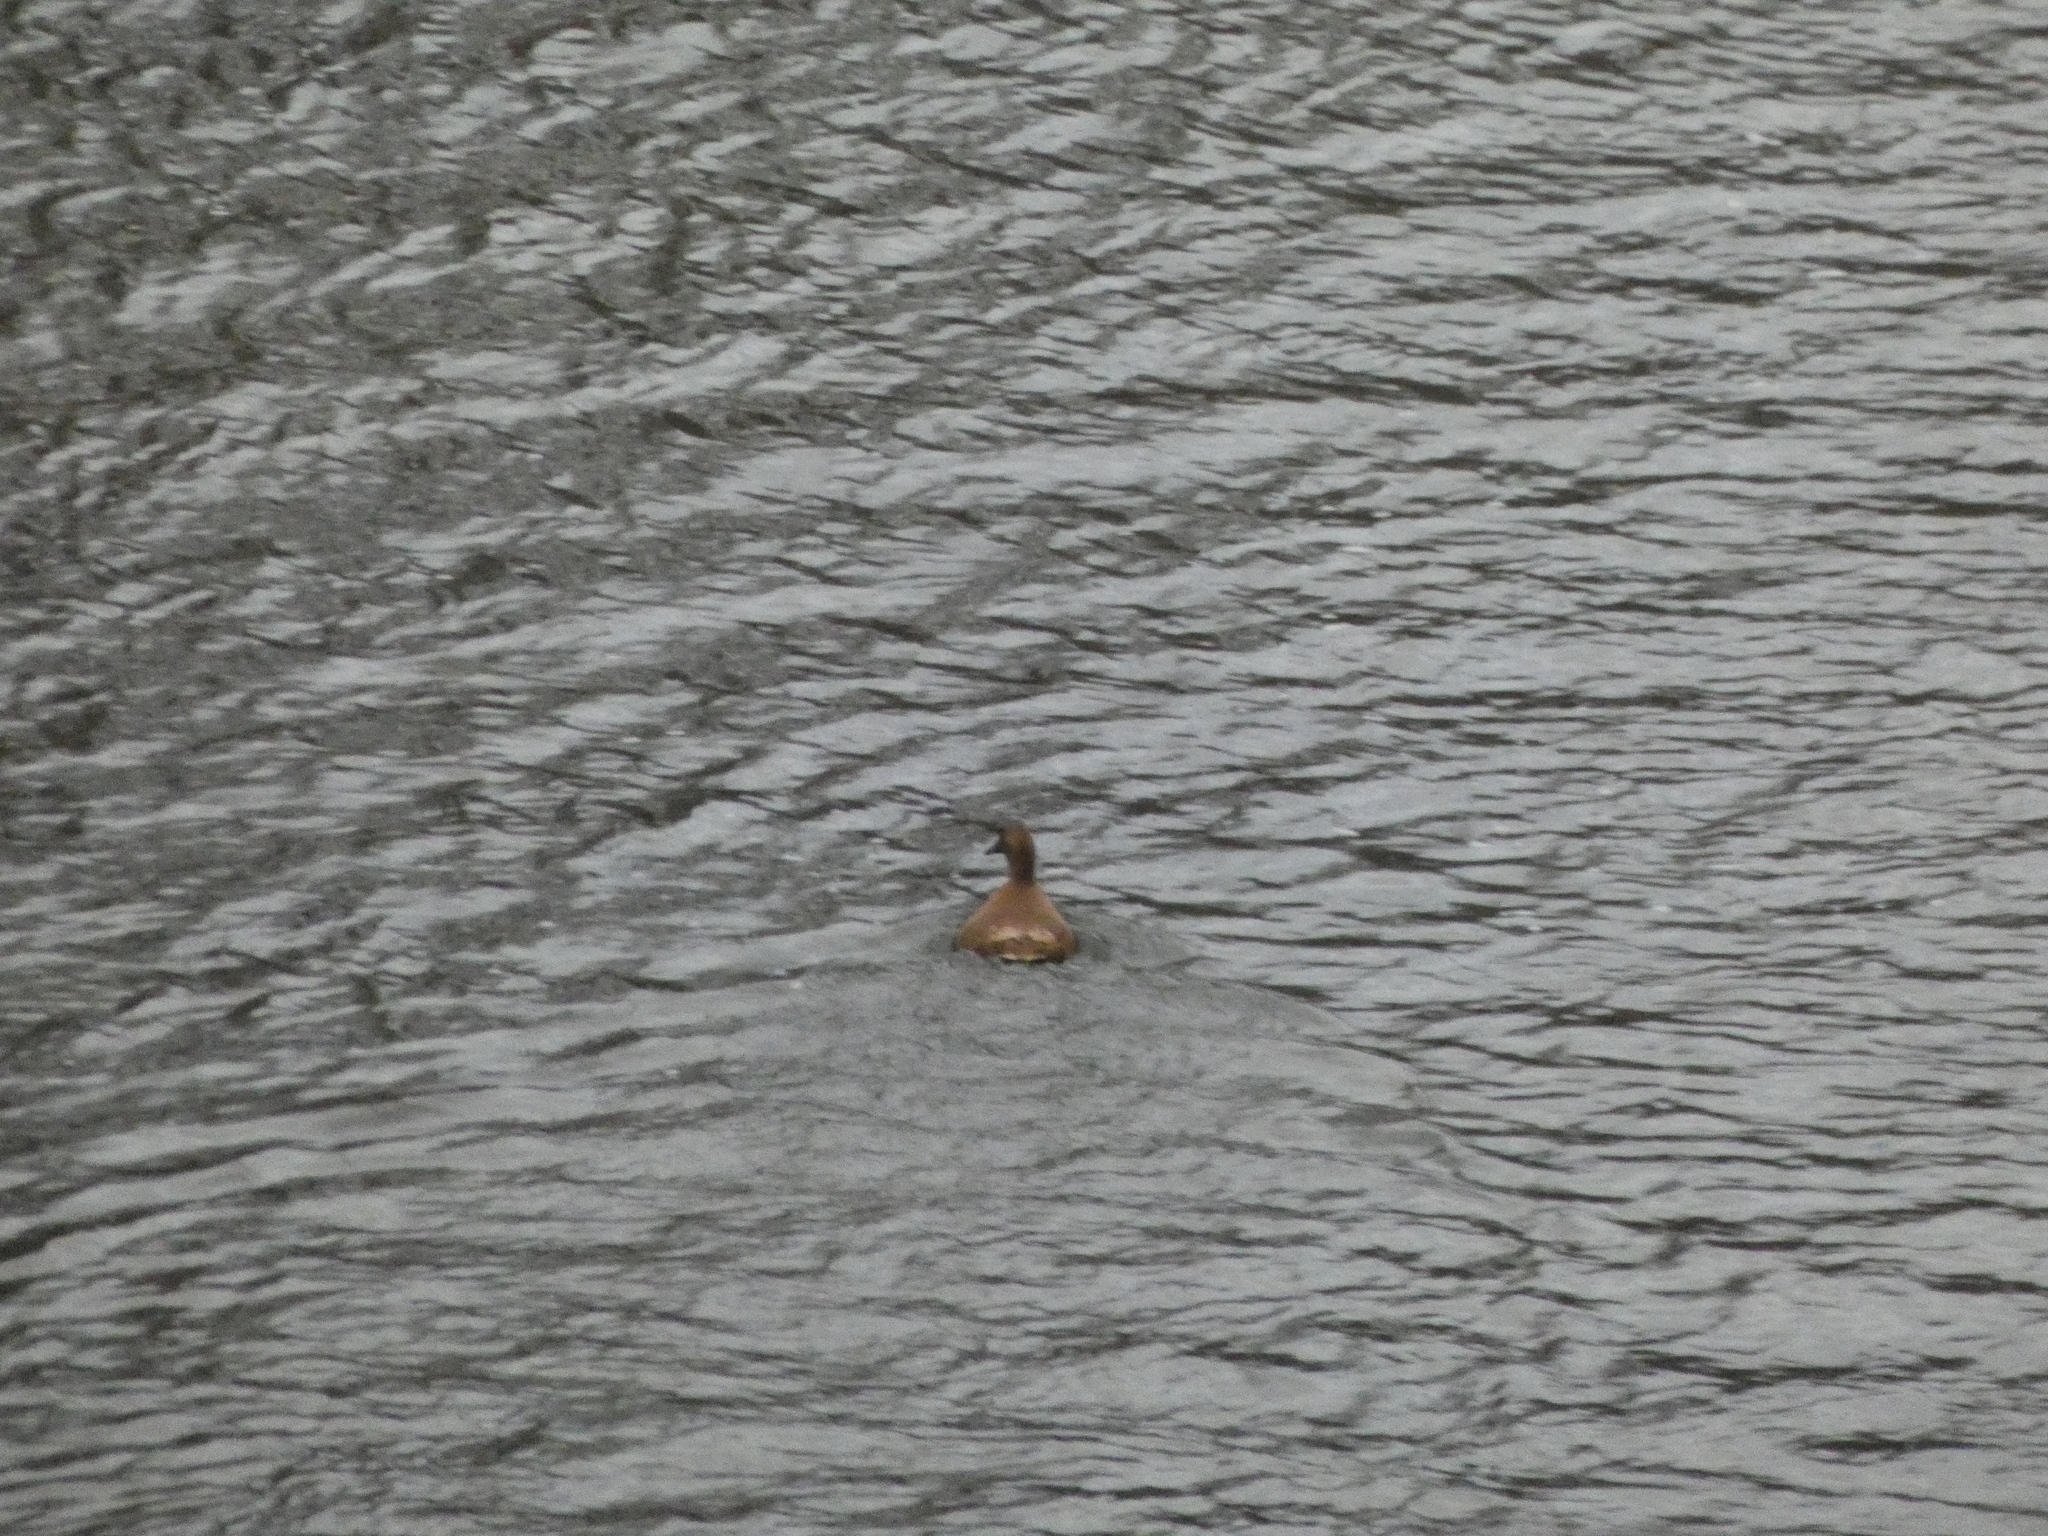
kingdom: Animalia
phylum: Chordata
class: Aves
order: Anseriformes
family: Anatidae
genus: Anas
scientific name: Anas platyrhynchos
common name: Mallard
